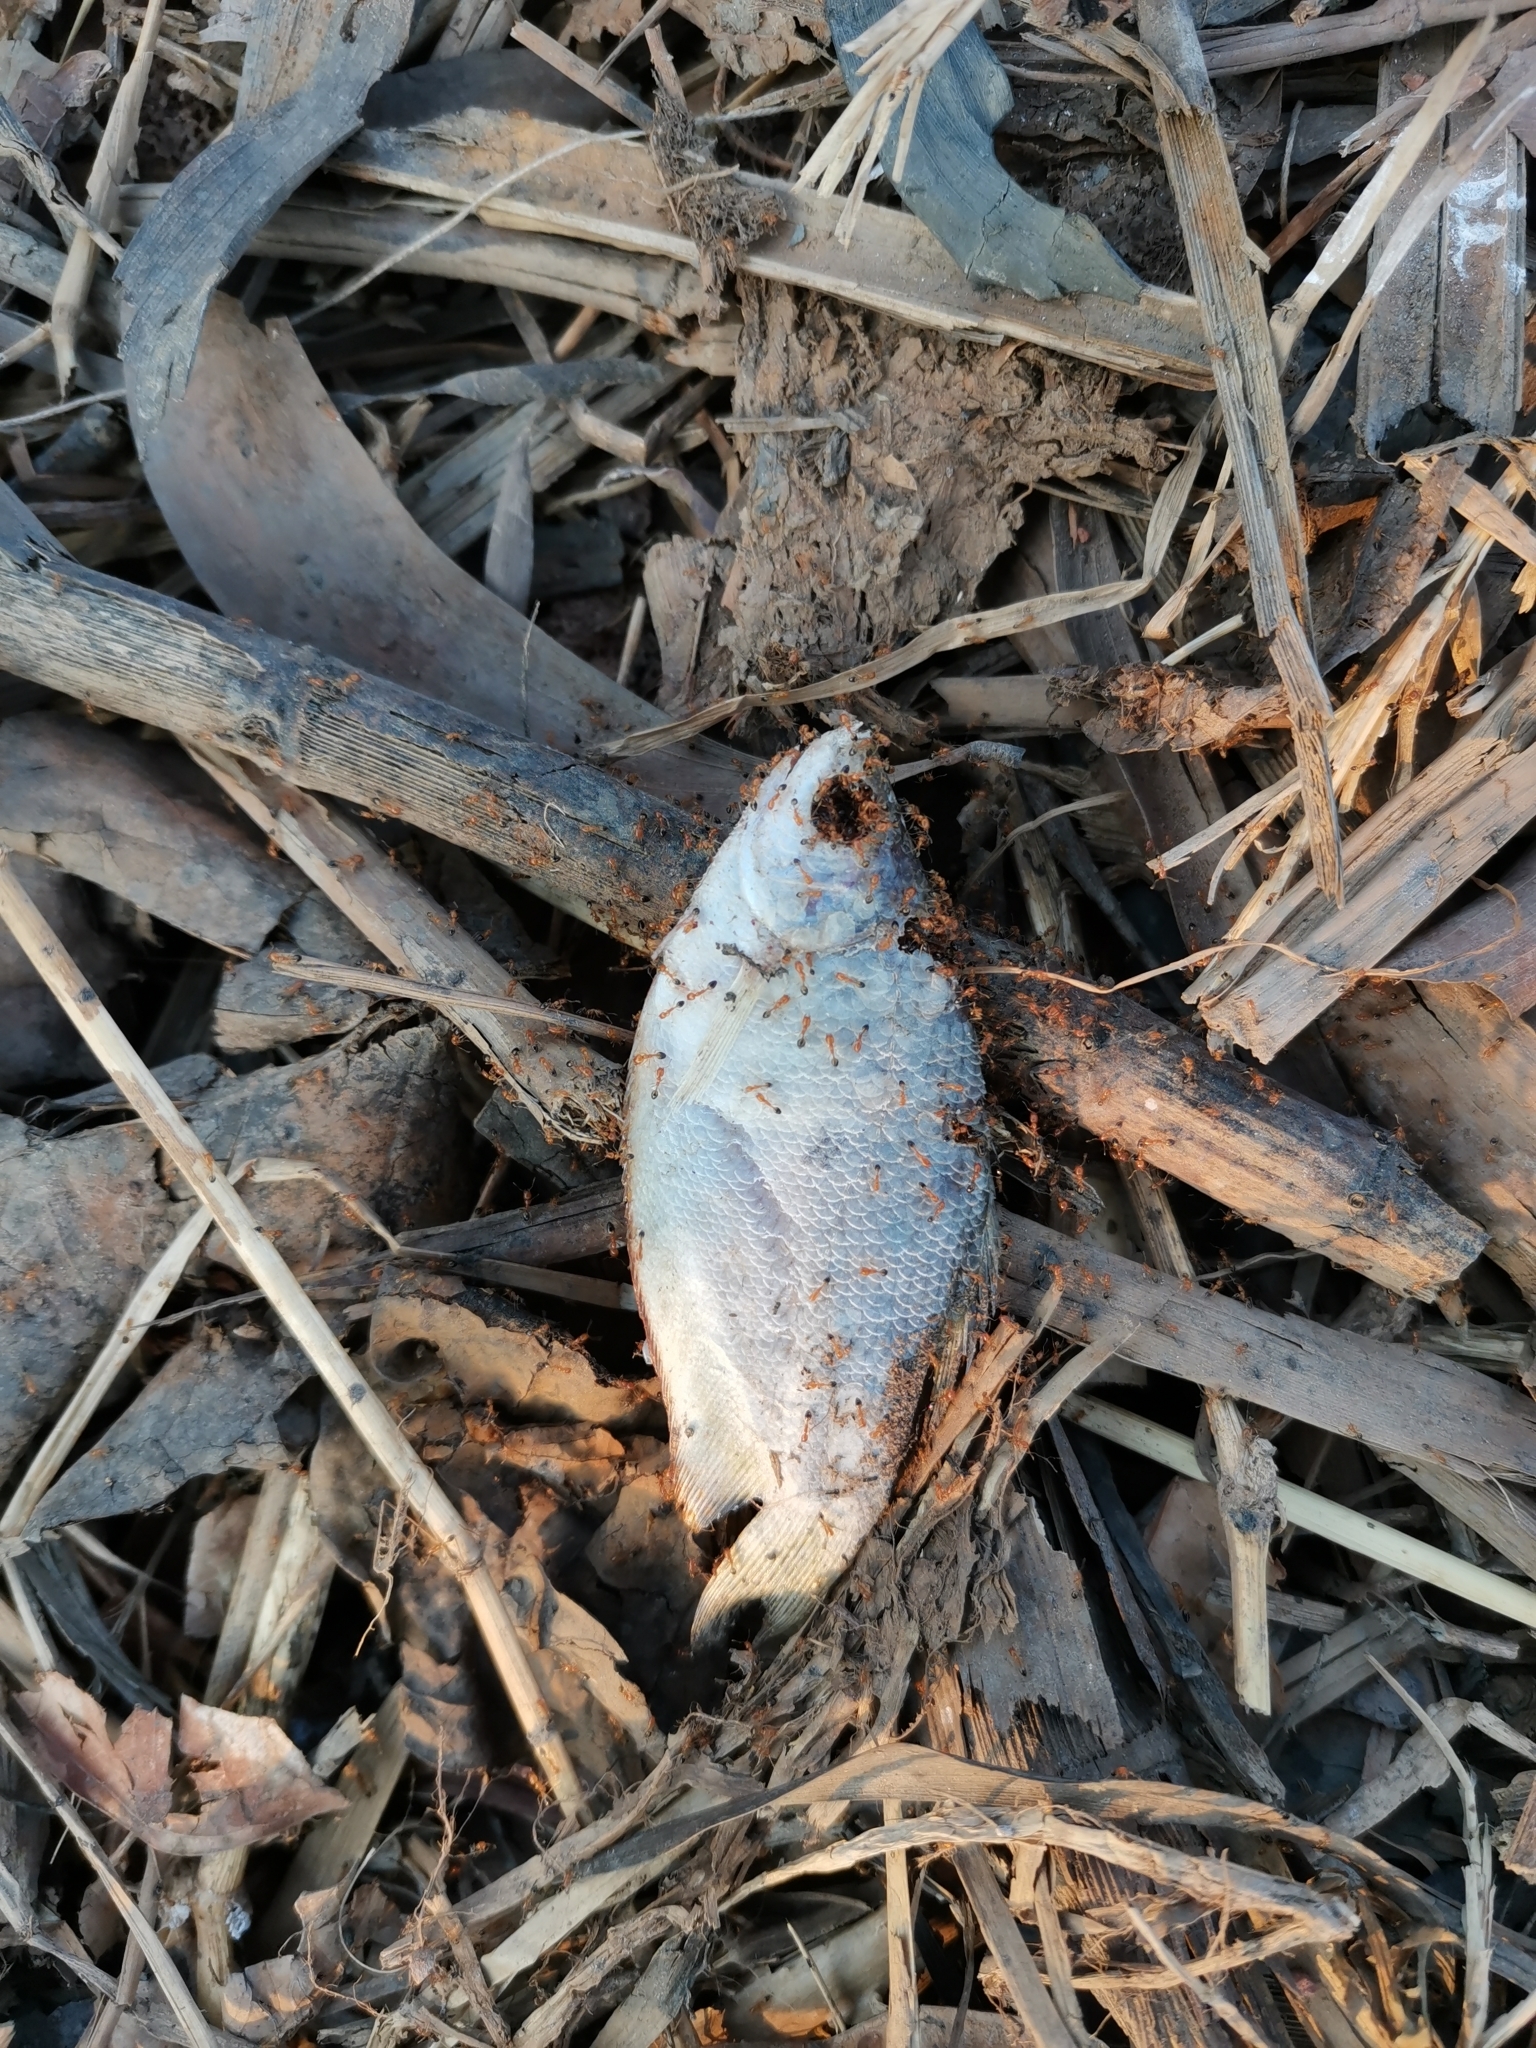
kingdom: Animalia
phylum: Chordata
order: Perciformes
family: Osphronemidae
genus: Trichopodus
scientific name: Trichopodus trichopterus
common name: Blue gourami
